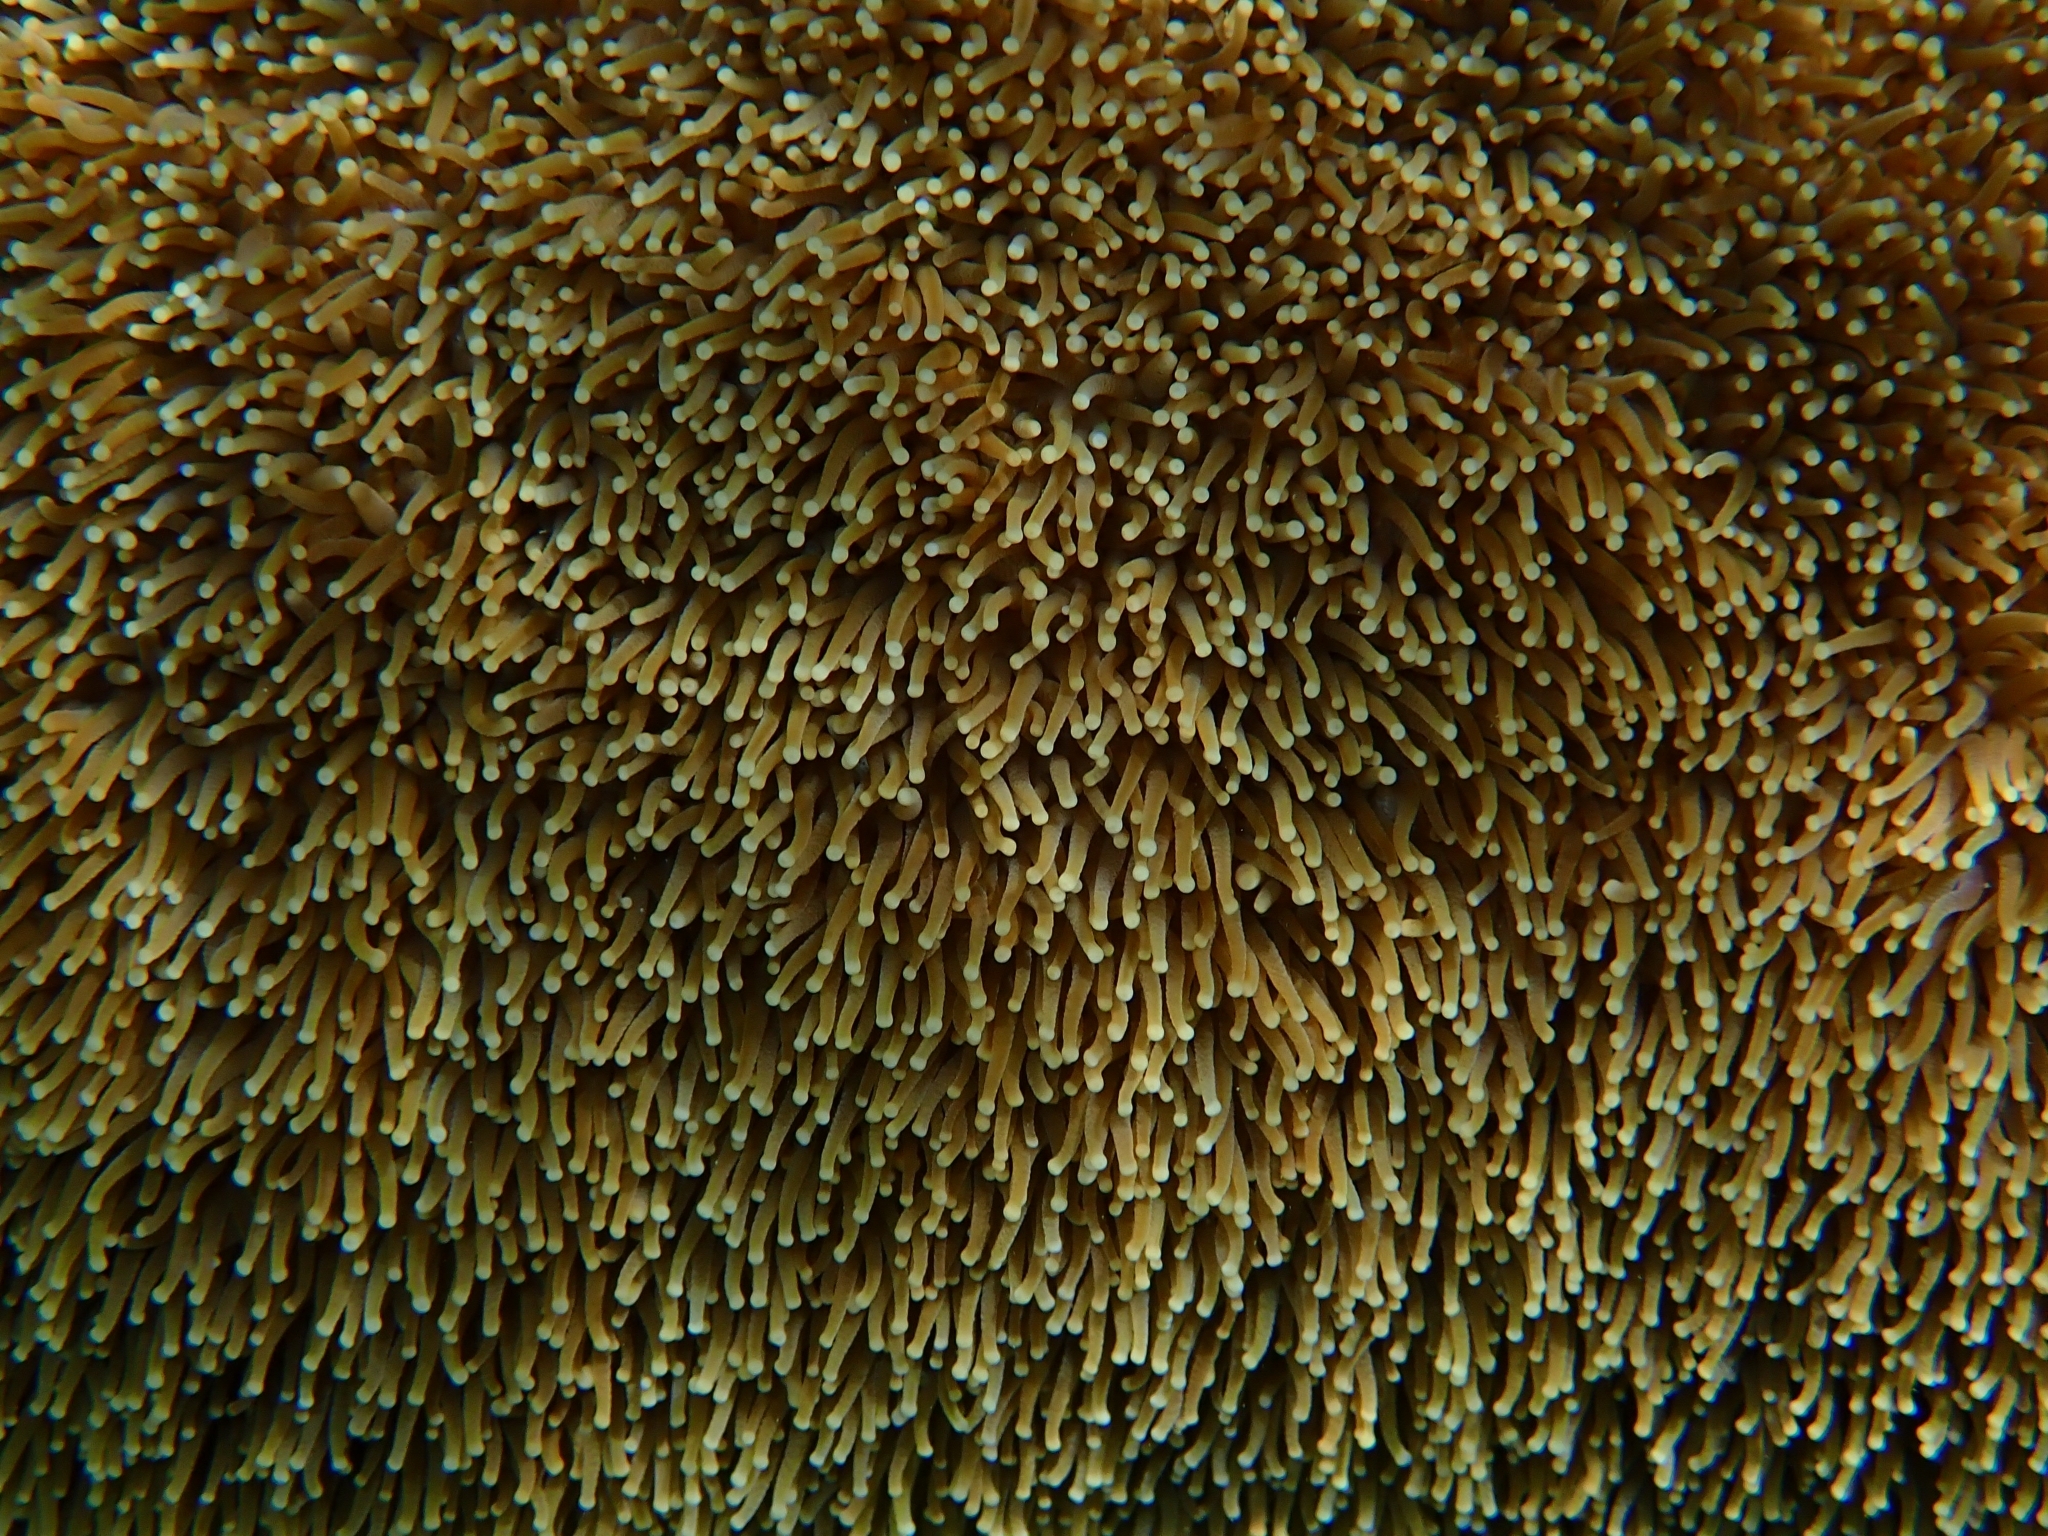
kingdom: Animalia
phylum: Cnidaria
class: Anthozoa
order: Scleractinia
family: Meandrinidae
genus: Dendrogyra
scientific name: Dendrogyra cylindrus
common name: Pillar coral
